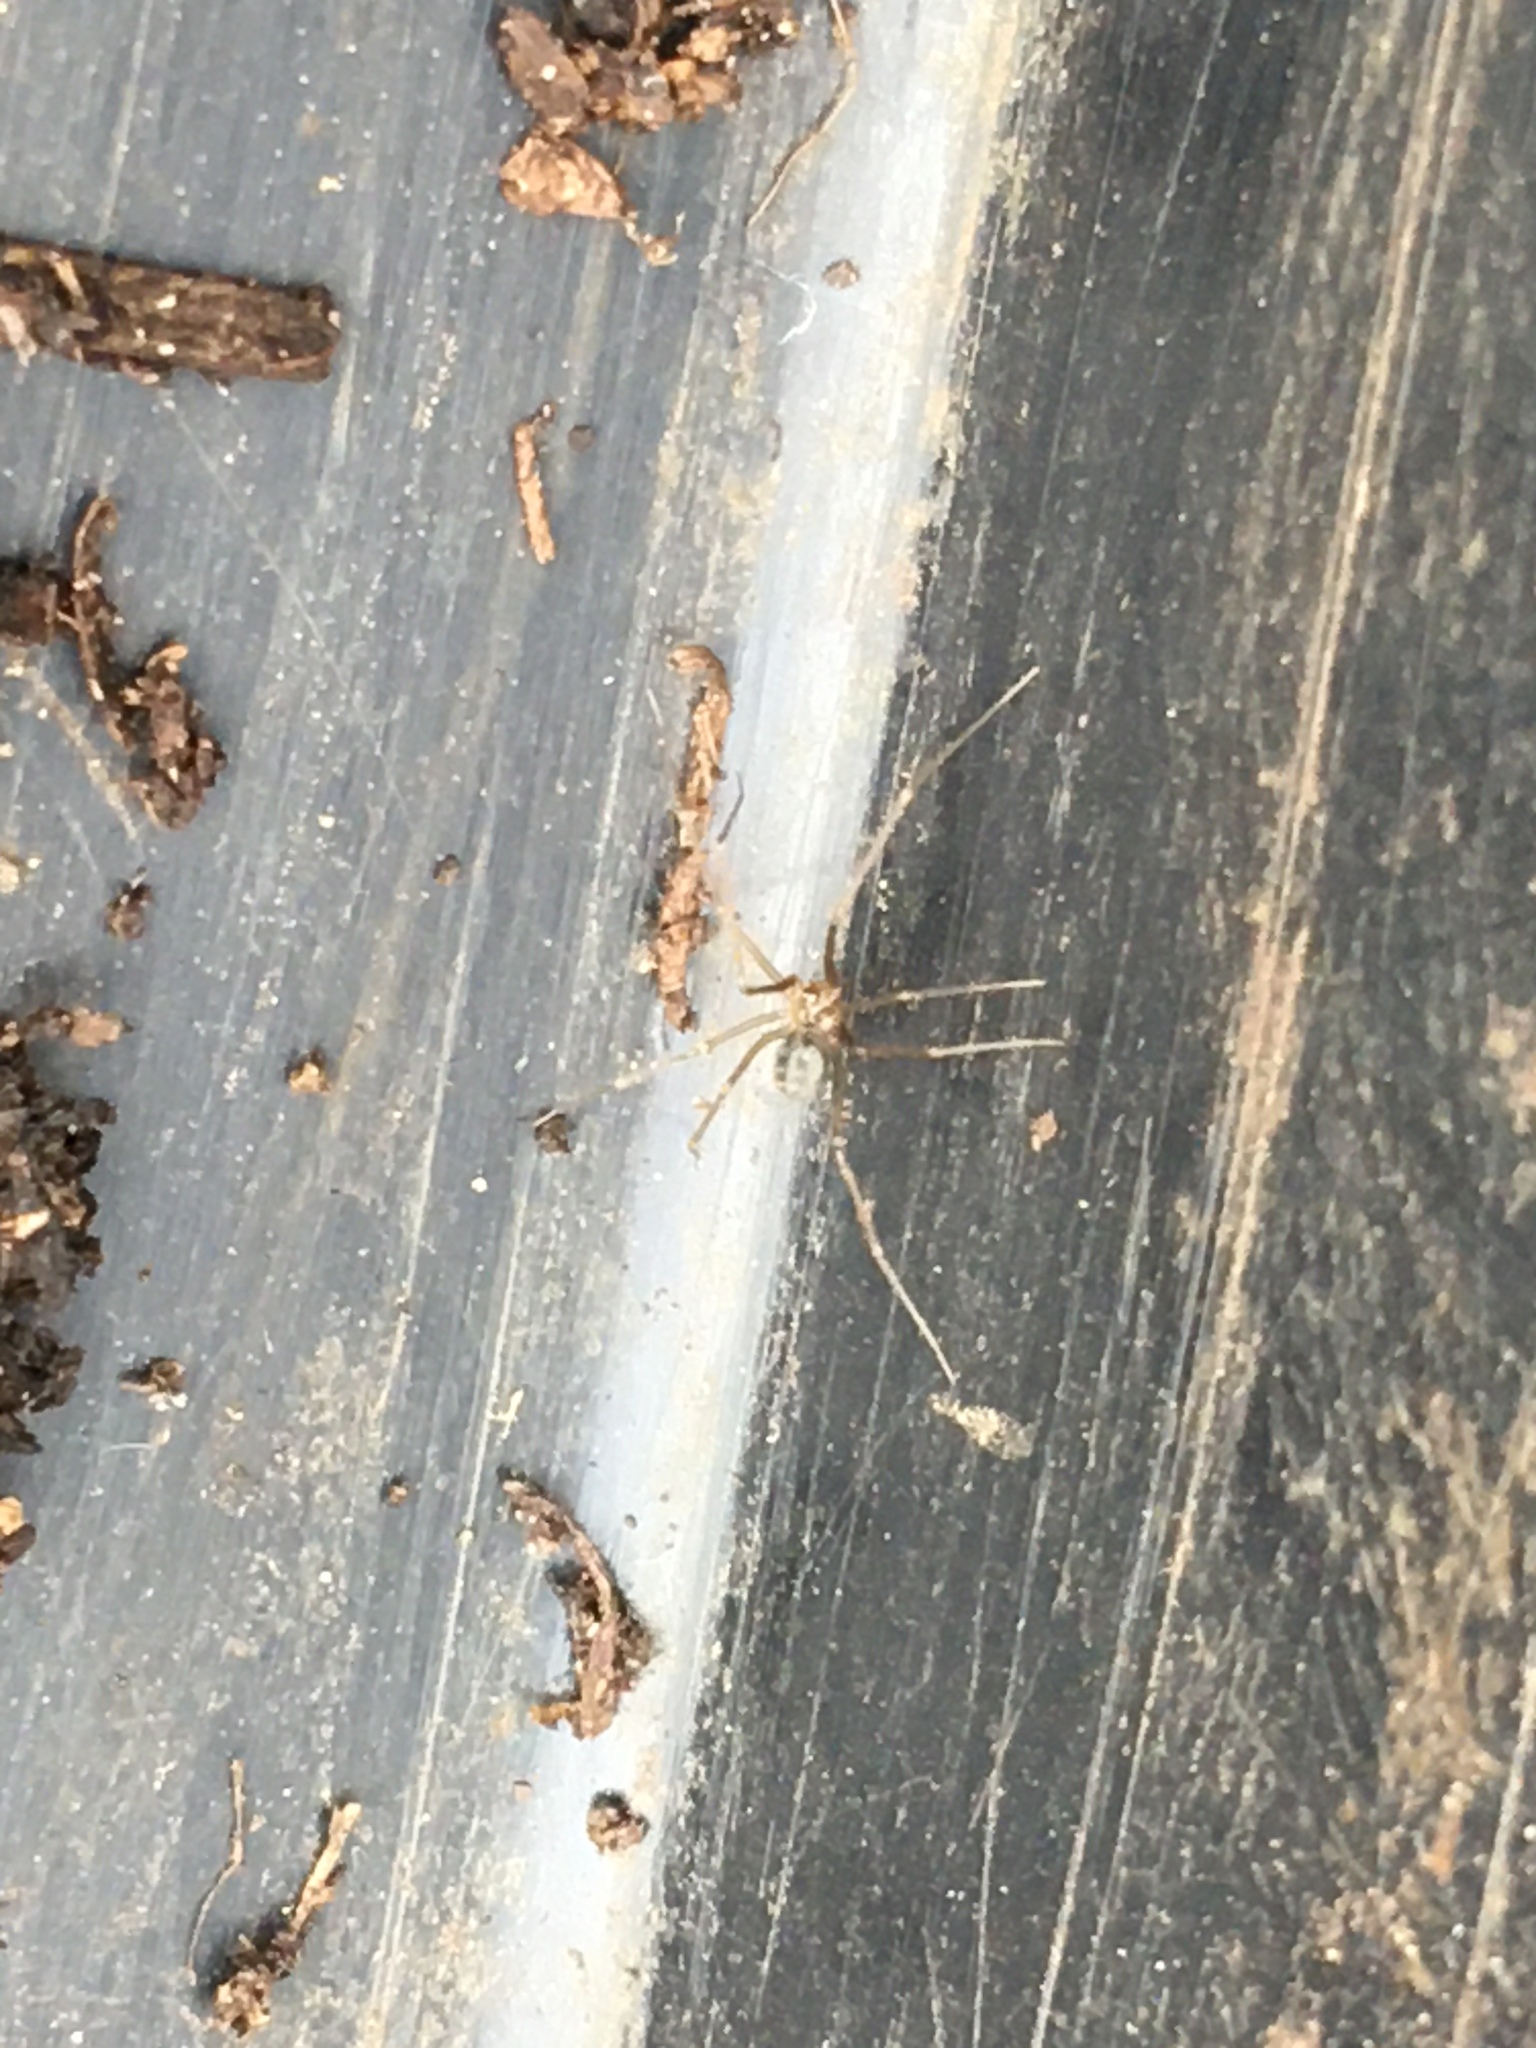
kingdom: Animalia
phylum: Arthropoda
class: Arachnida
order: Araneae
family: Pholcidae
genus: Psilochorus
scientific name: Psilochorus simoni
